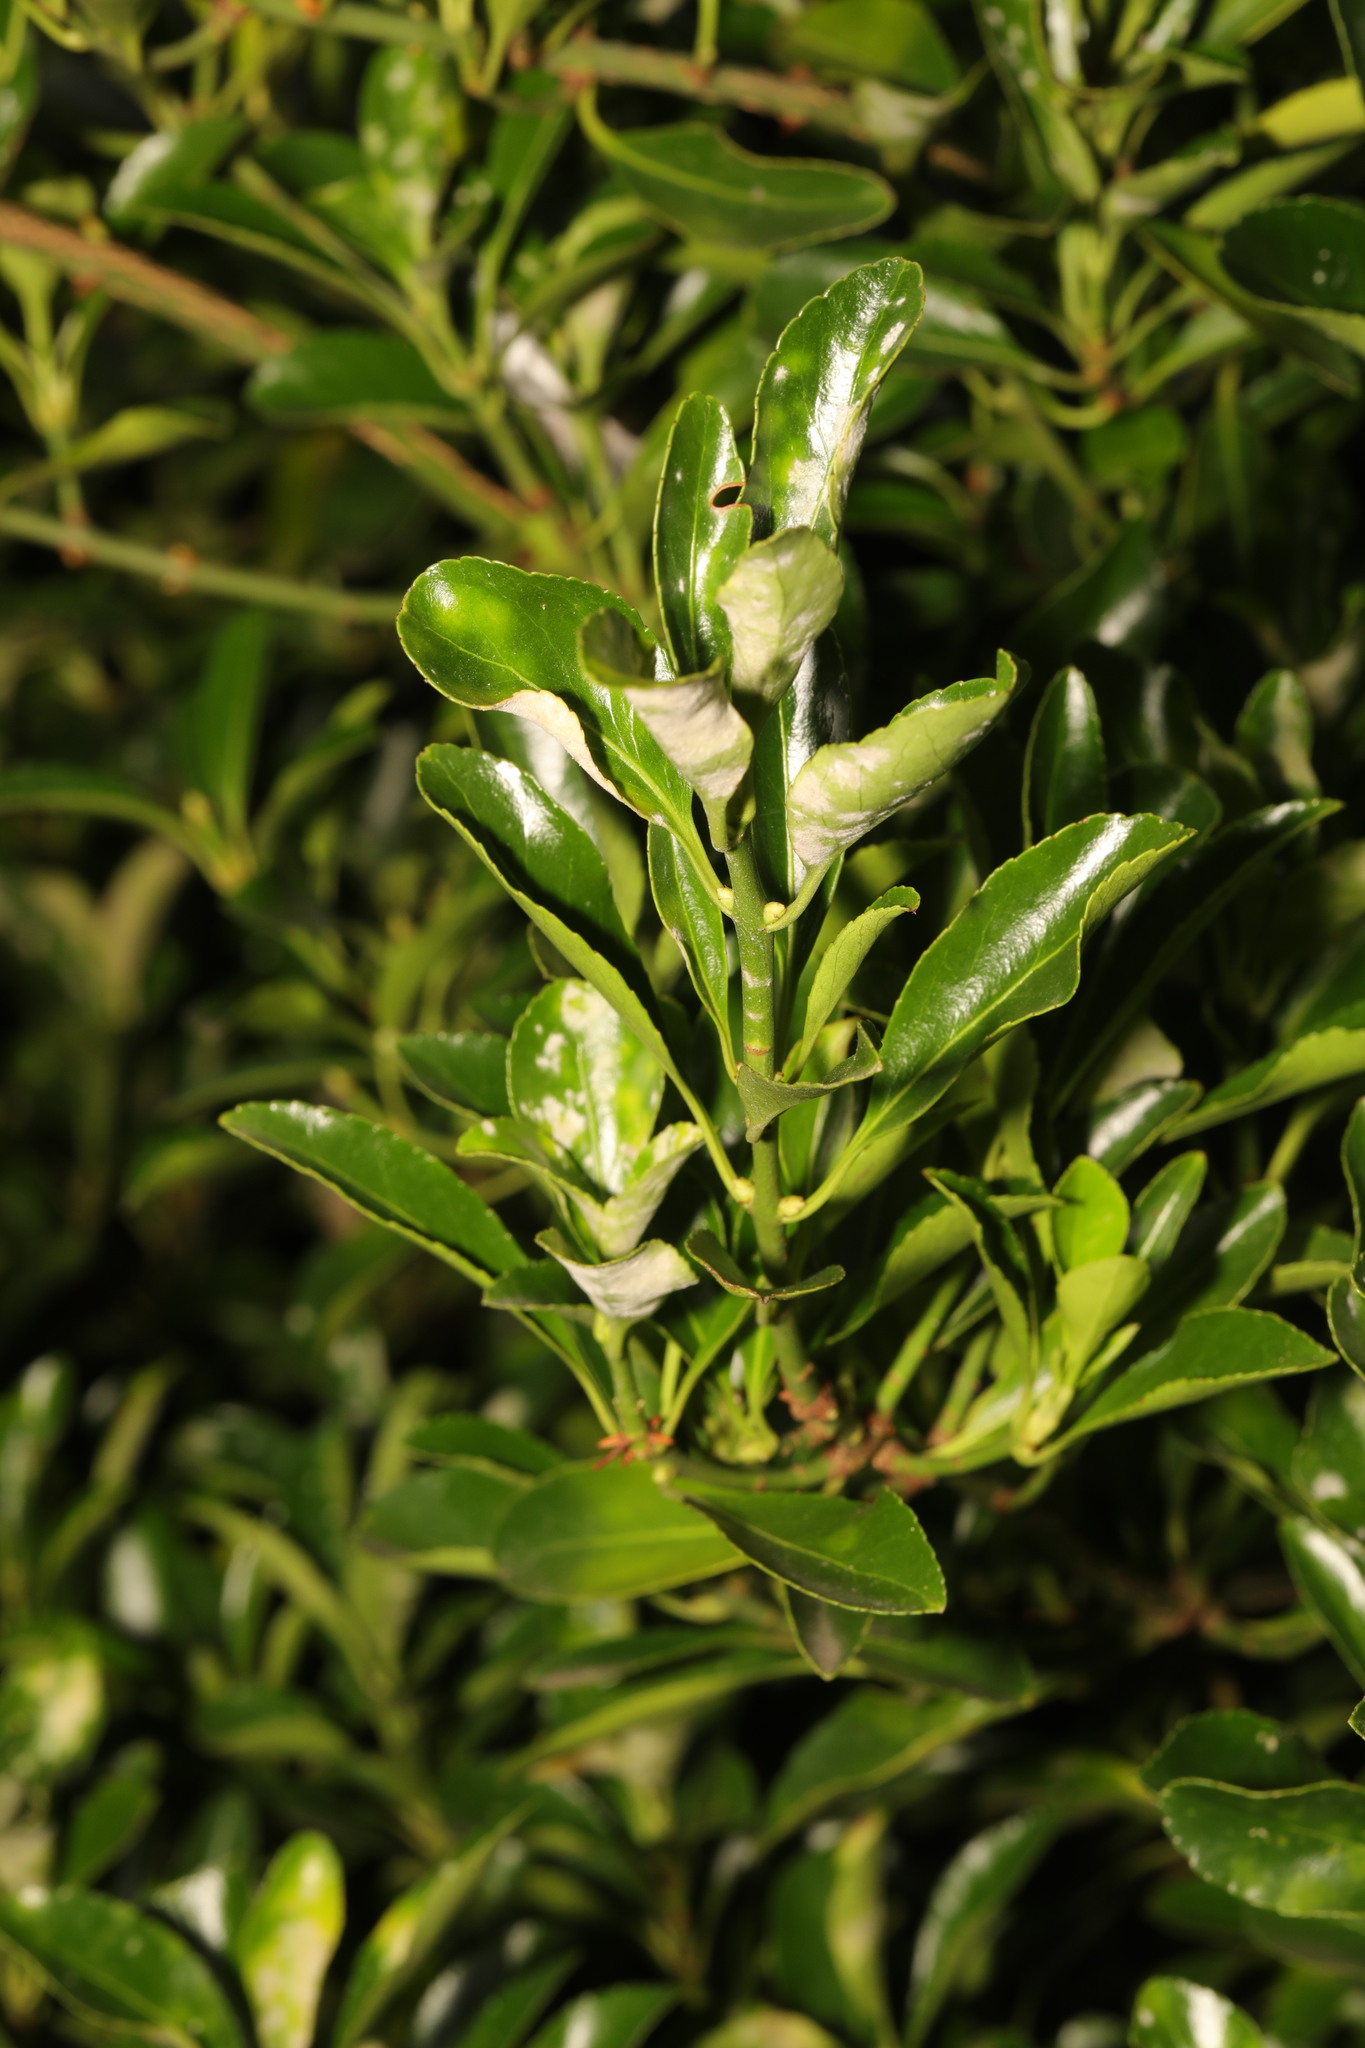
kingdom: Plantae
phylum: Tracheophyta
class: Magnoliopsida
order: Celastrales
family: Celastraceae
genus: Euonymus
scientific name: Euonymus japonicus
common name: Japanese spindletree
